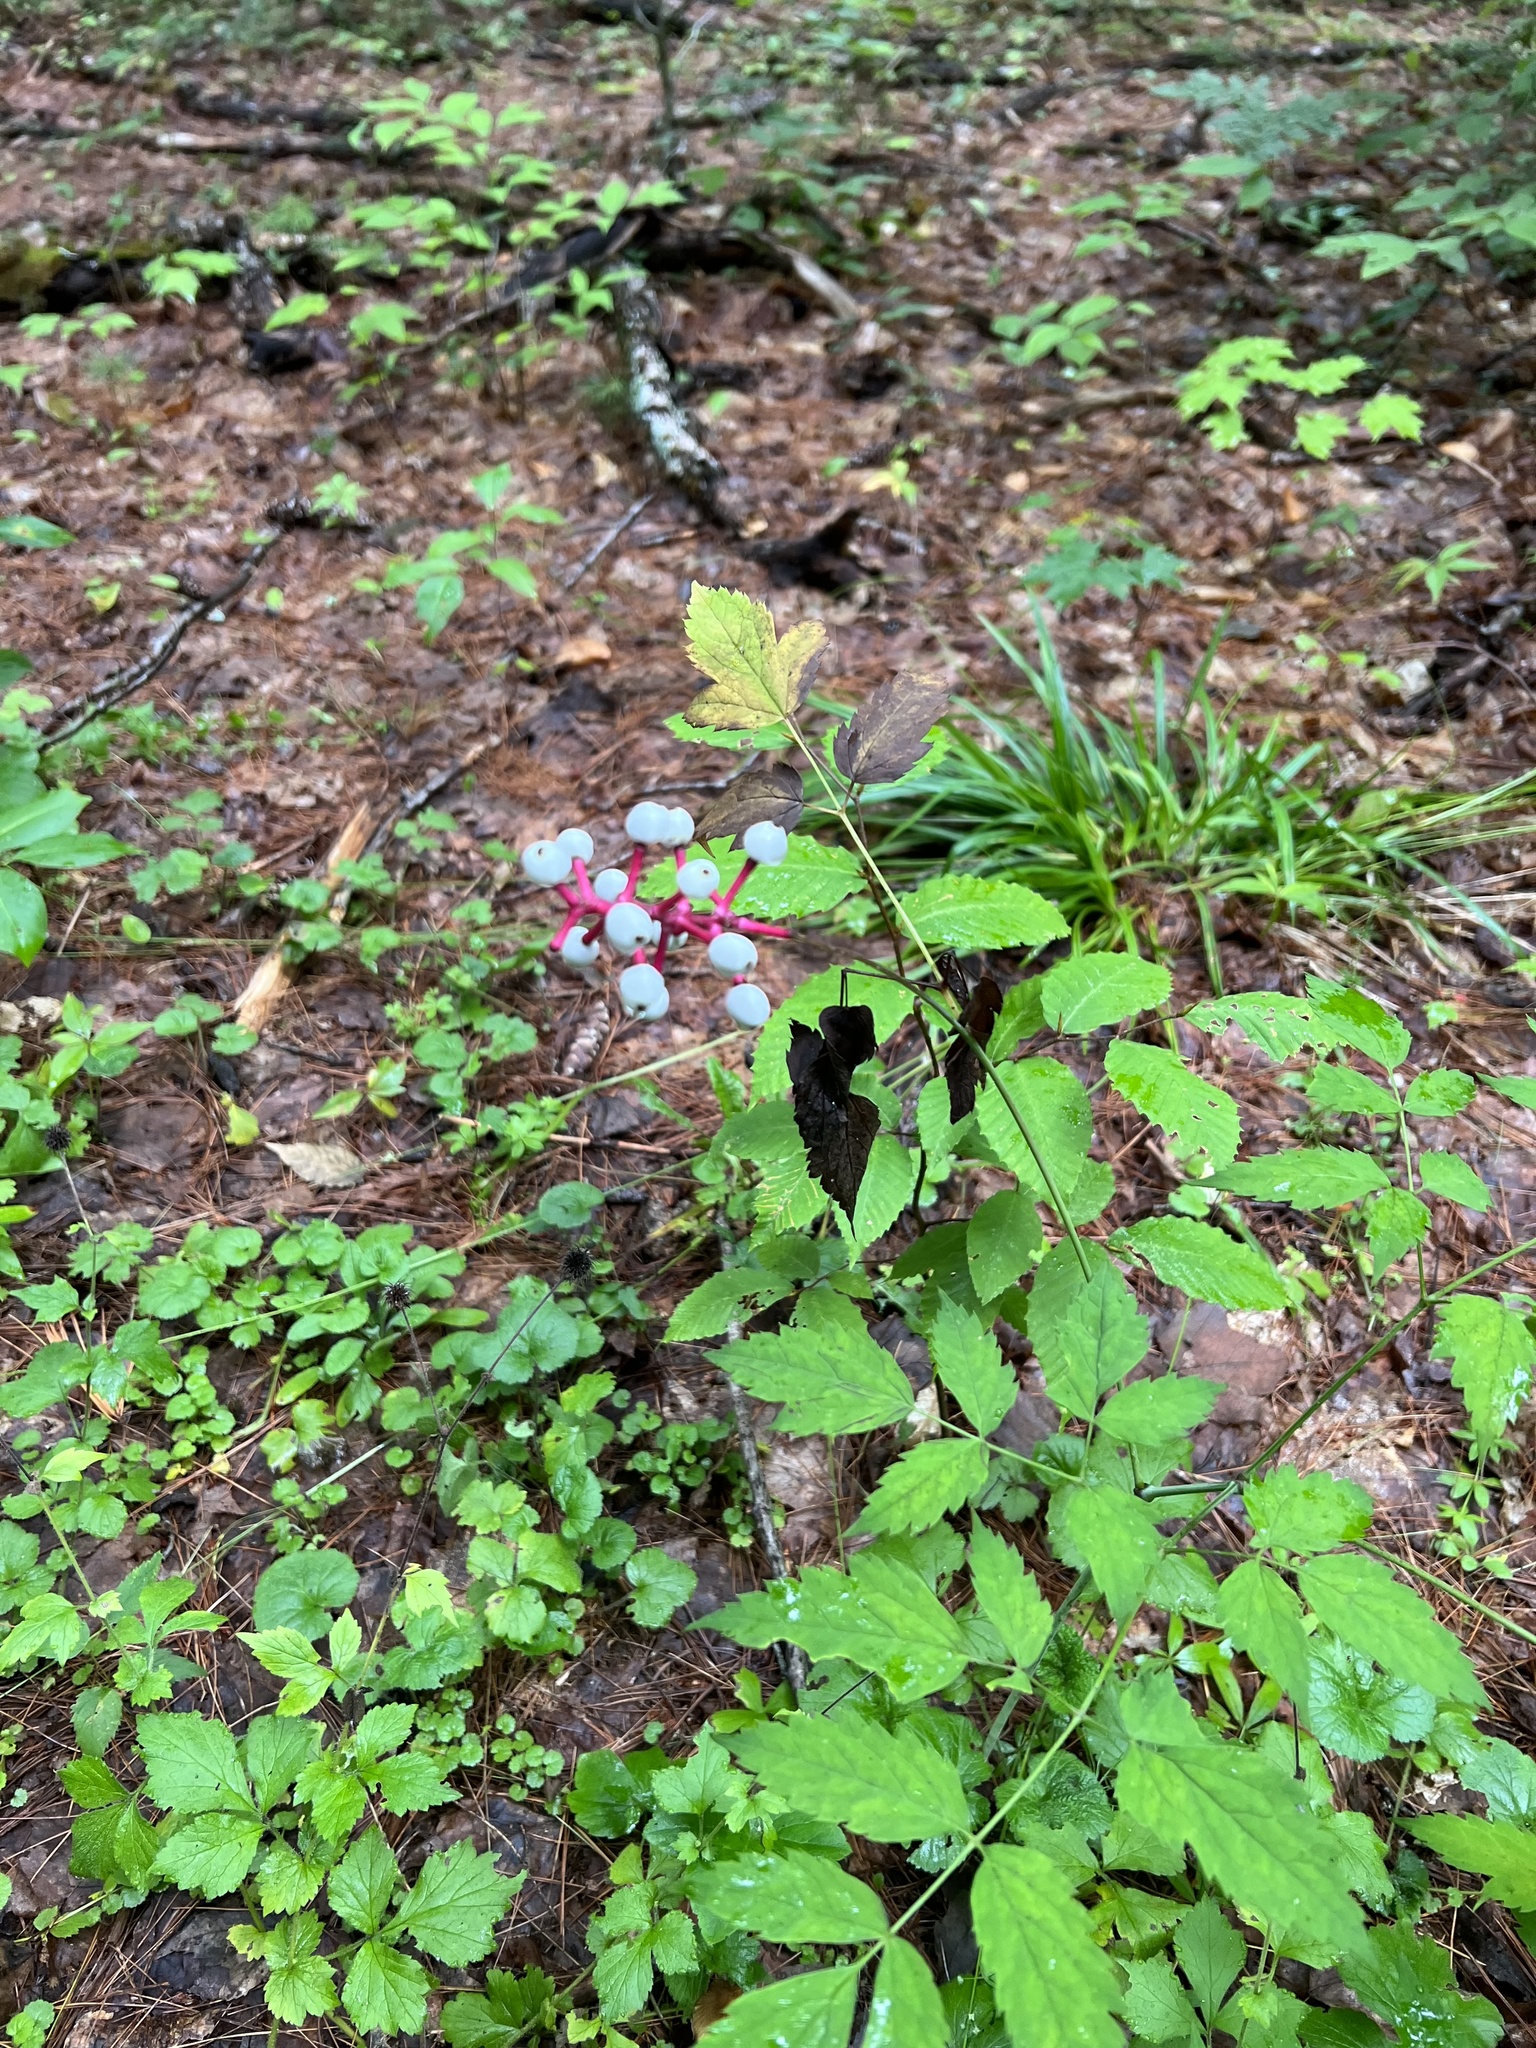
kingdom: Plantae
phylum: Tracheophyta
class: Magnoliopsida
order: Ranunculales
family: Ranunculaceae
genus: Actaea
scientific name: Actaea pachypoda
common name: Doll's-eyes
